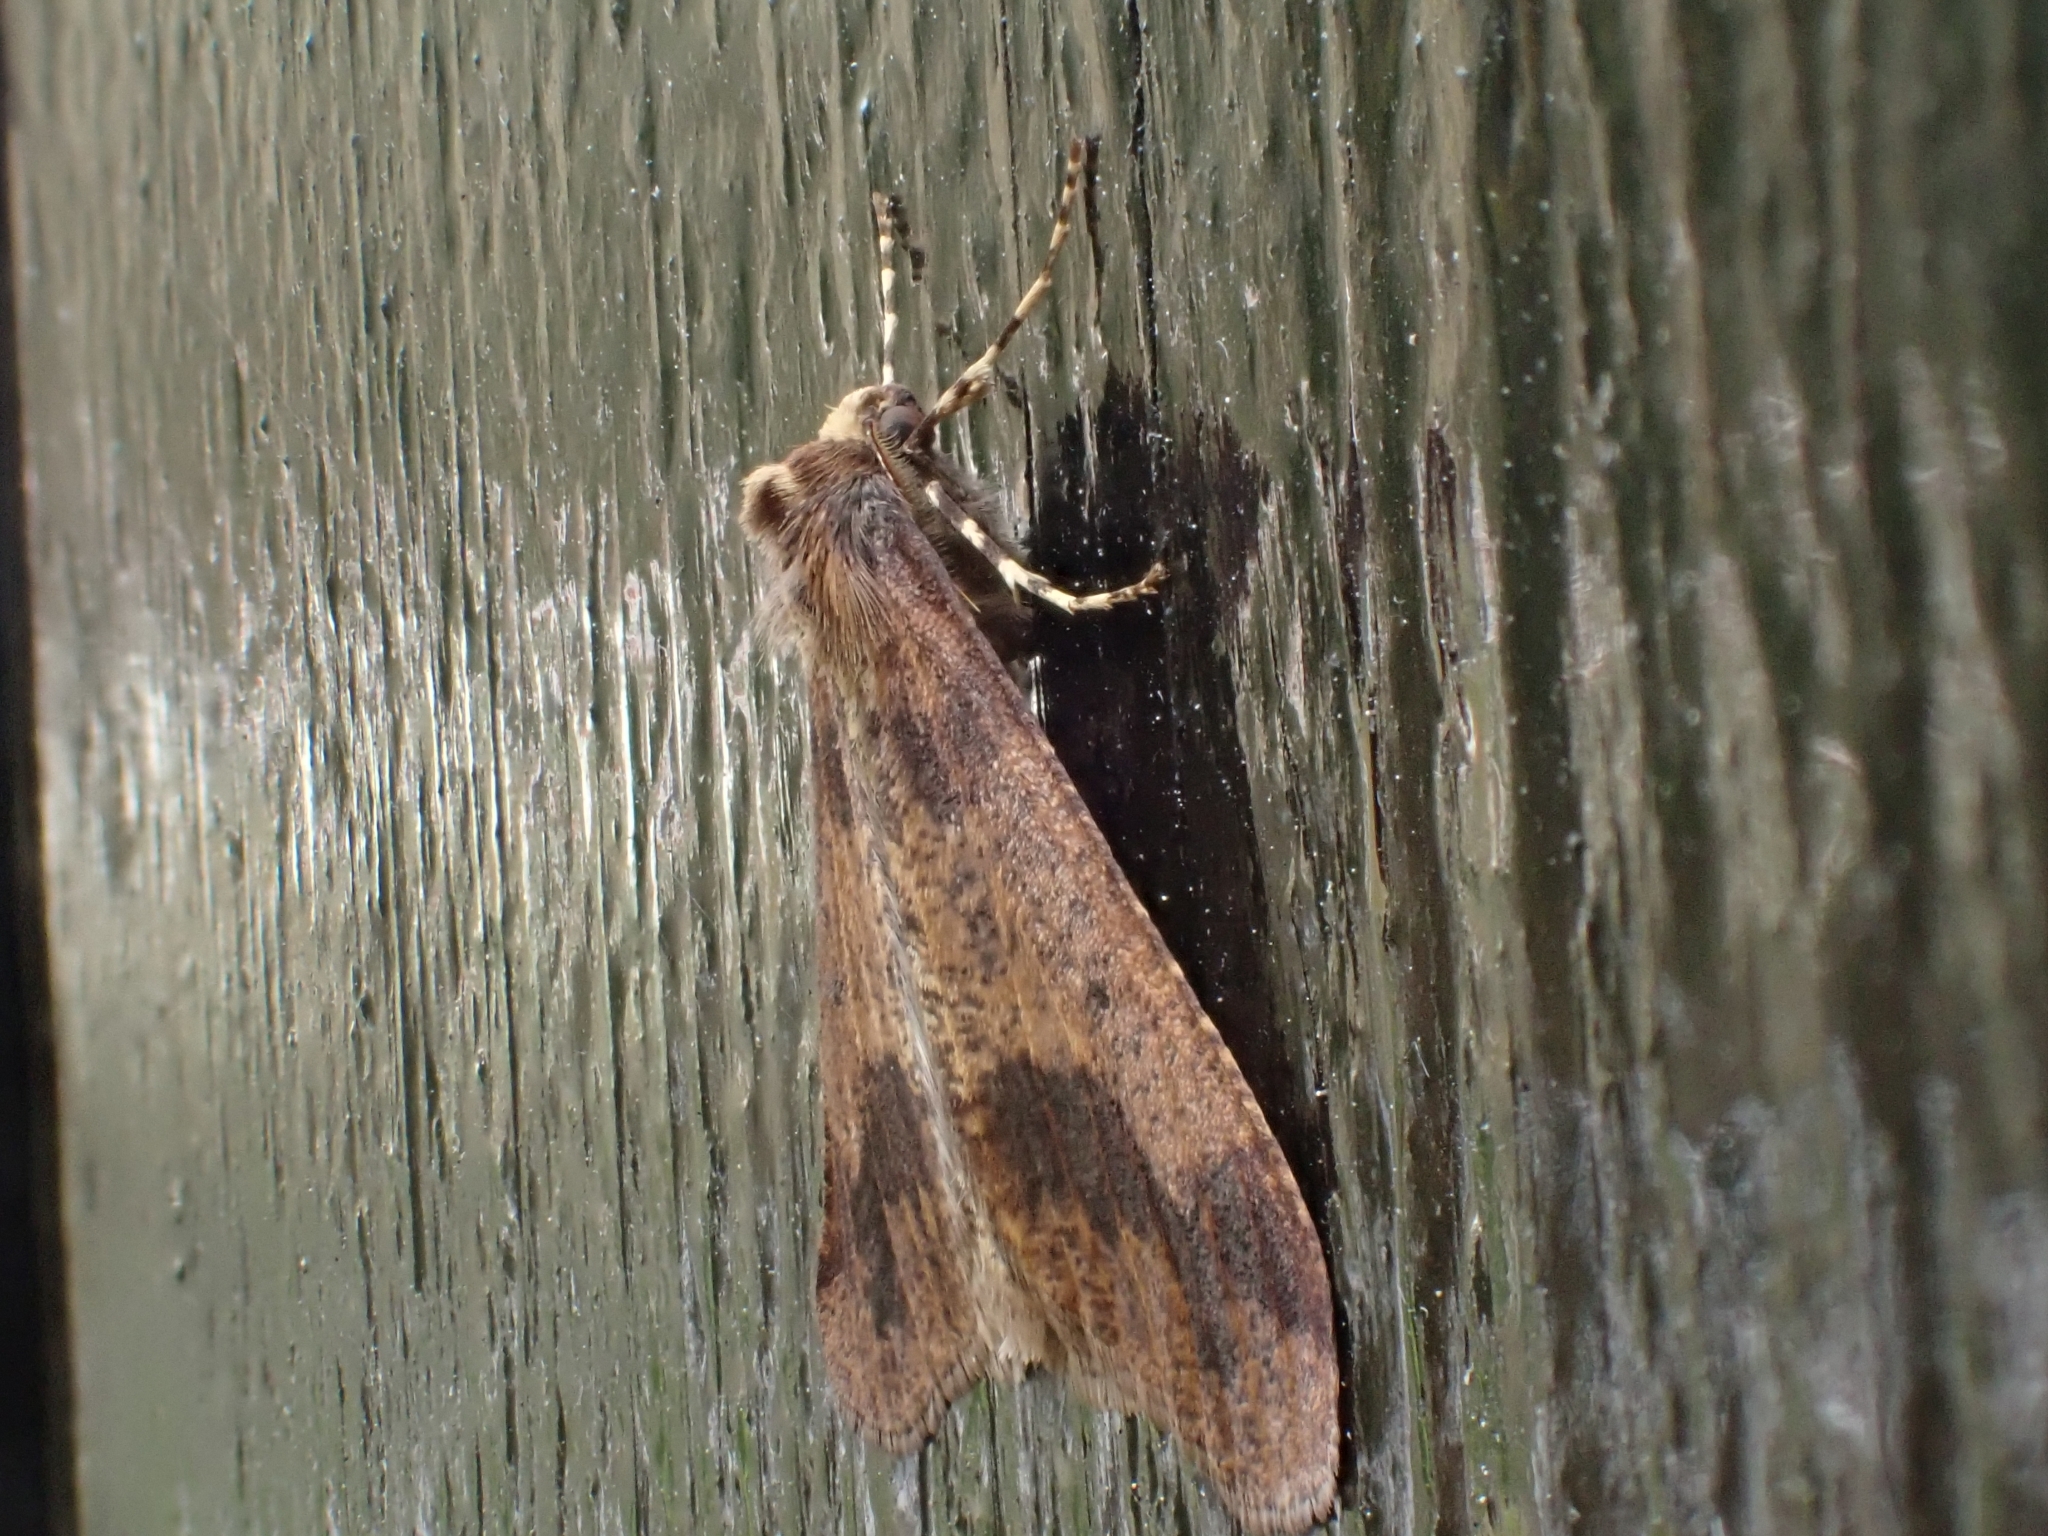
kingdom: Animalia
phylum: Arthropoda
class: Insecta
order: Lepidoptera
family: Geometridae
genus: Erannis
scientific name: Erannis defoliaria
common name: Mottled umber
